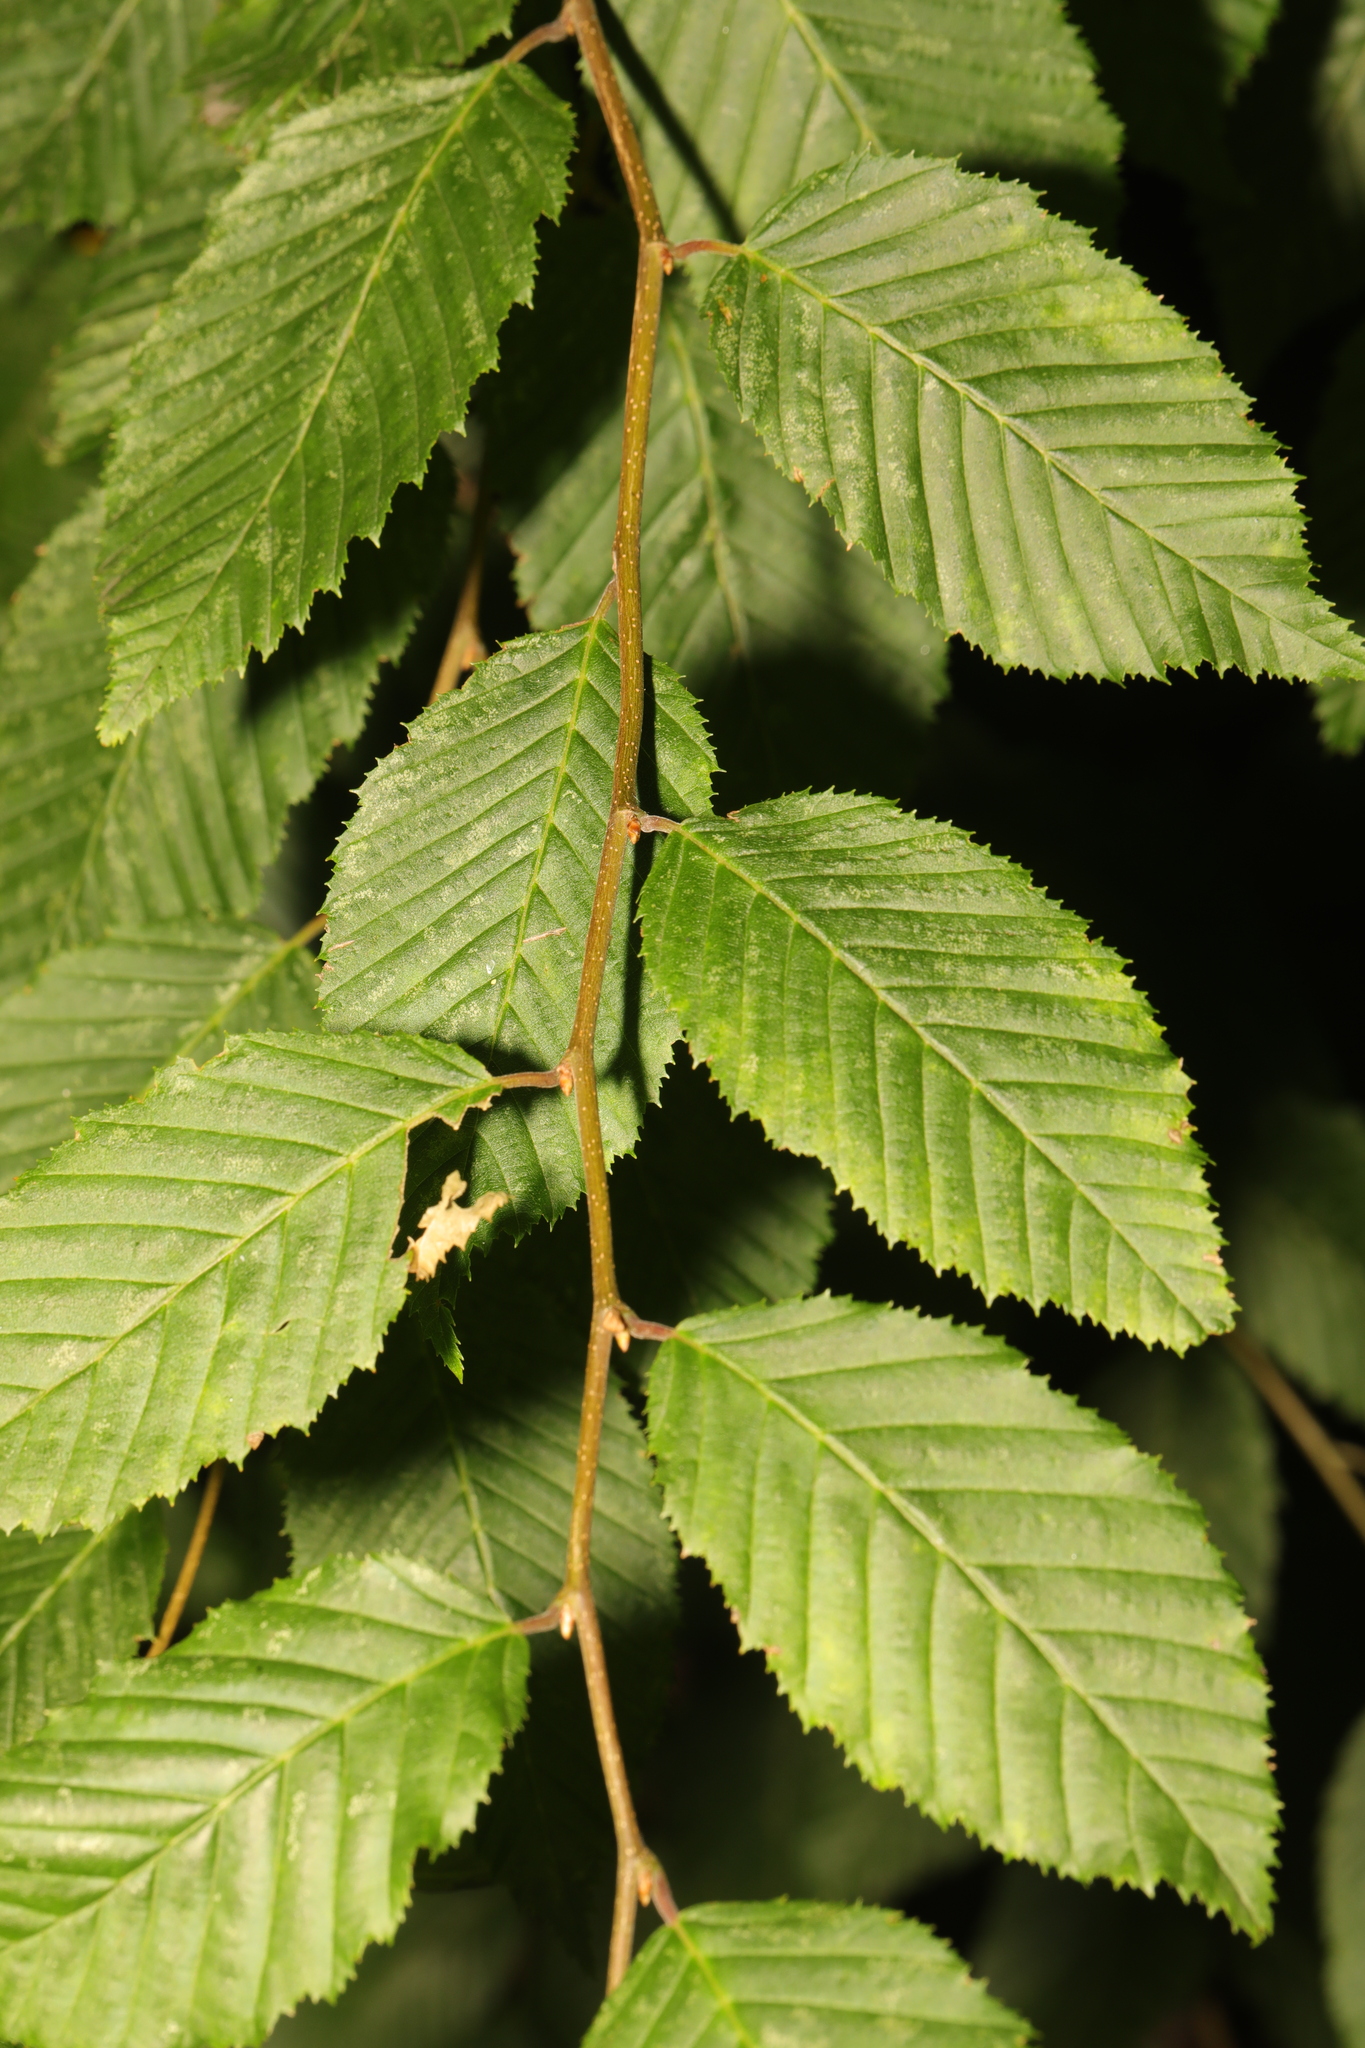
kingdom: Plantae
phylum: Tracheophyta
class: Magnoliopsida
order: Fagales
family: Betulaceae
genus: Carpinus
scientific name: Carpinus betulus
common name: Hornbeam
